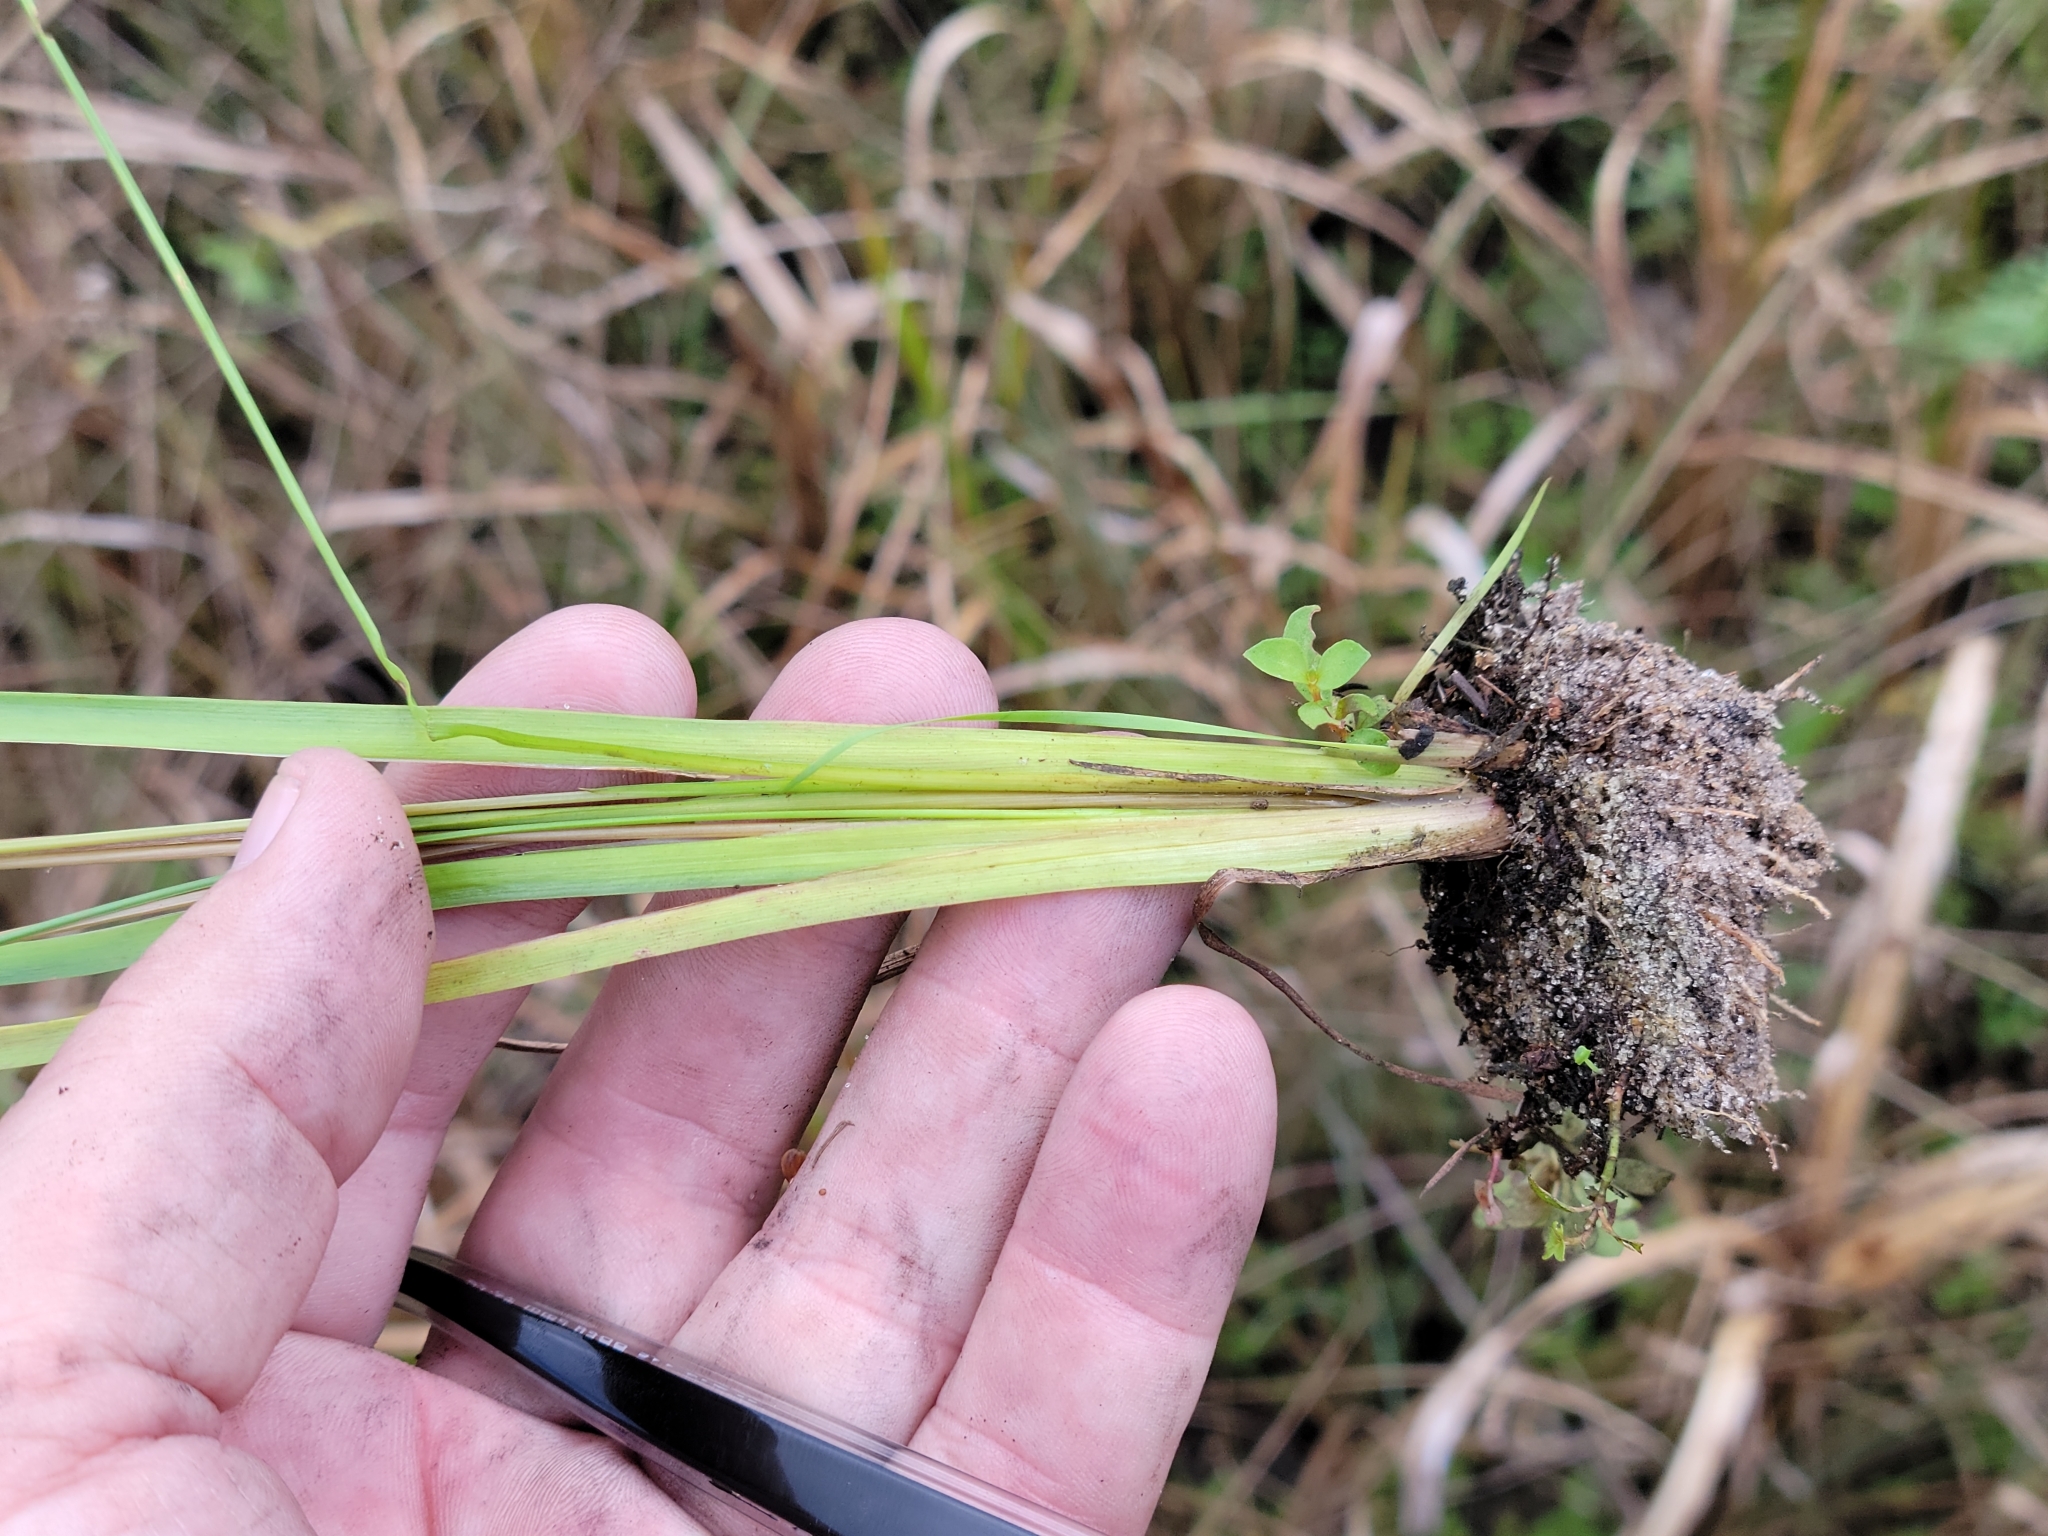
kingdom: Plantae
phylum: Tracheophyta
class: Liliopsida
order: Poales
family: Xyridaceae
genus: Xyris
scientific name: Xyris jupicai
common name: Richard's yelloweyed grass
